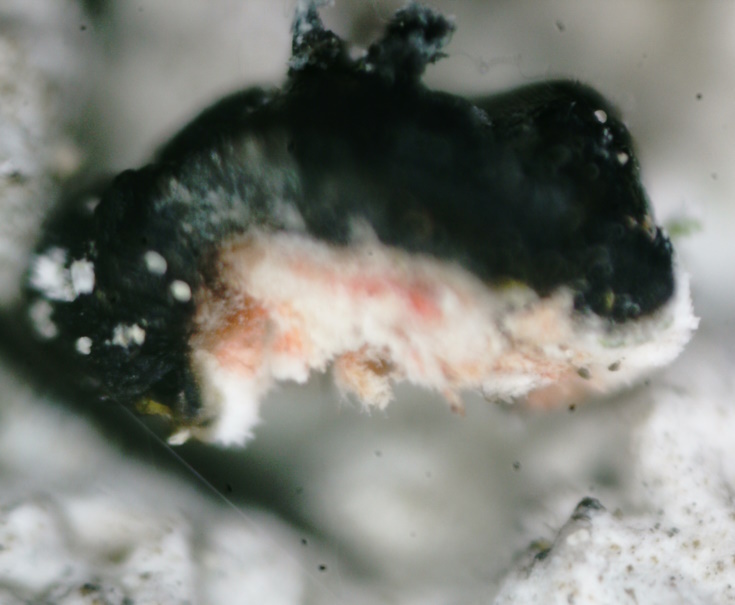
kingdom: Fungi
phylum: Ascomycota
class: Lecanoromycetes
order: Lecanorales
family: Tephromelataceae
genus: Mycoblastus
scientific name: Mycoblastus sanguinarius
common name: Bloody-heart lichen
